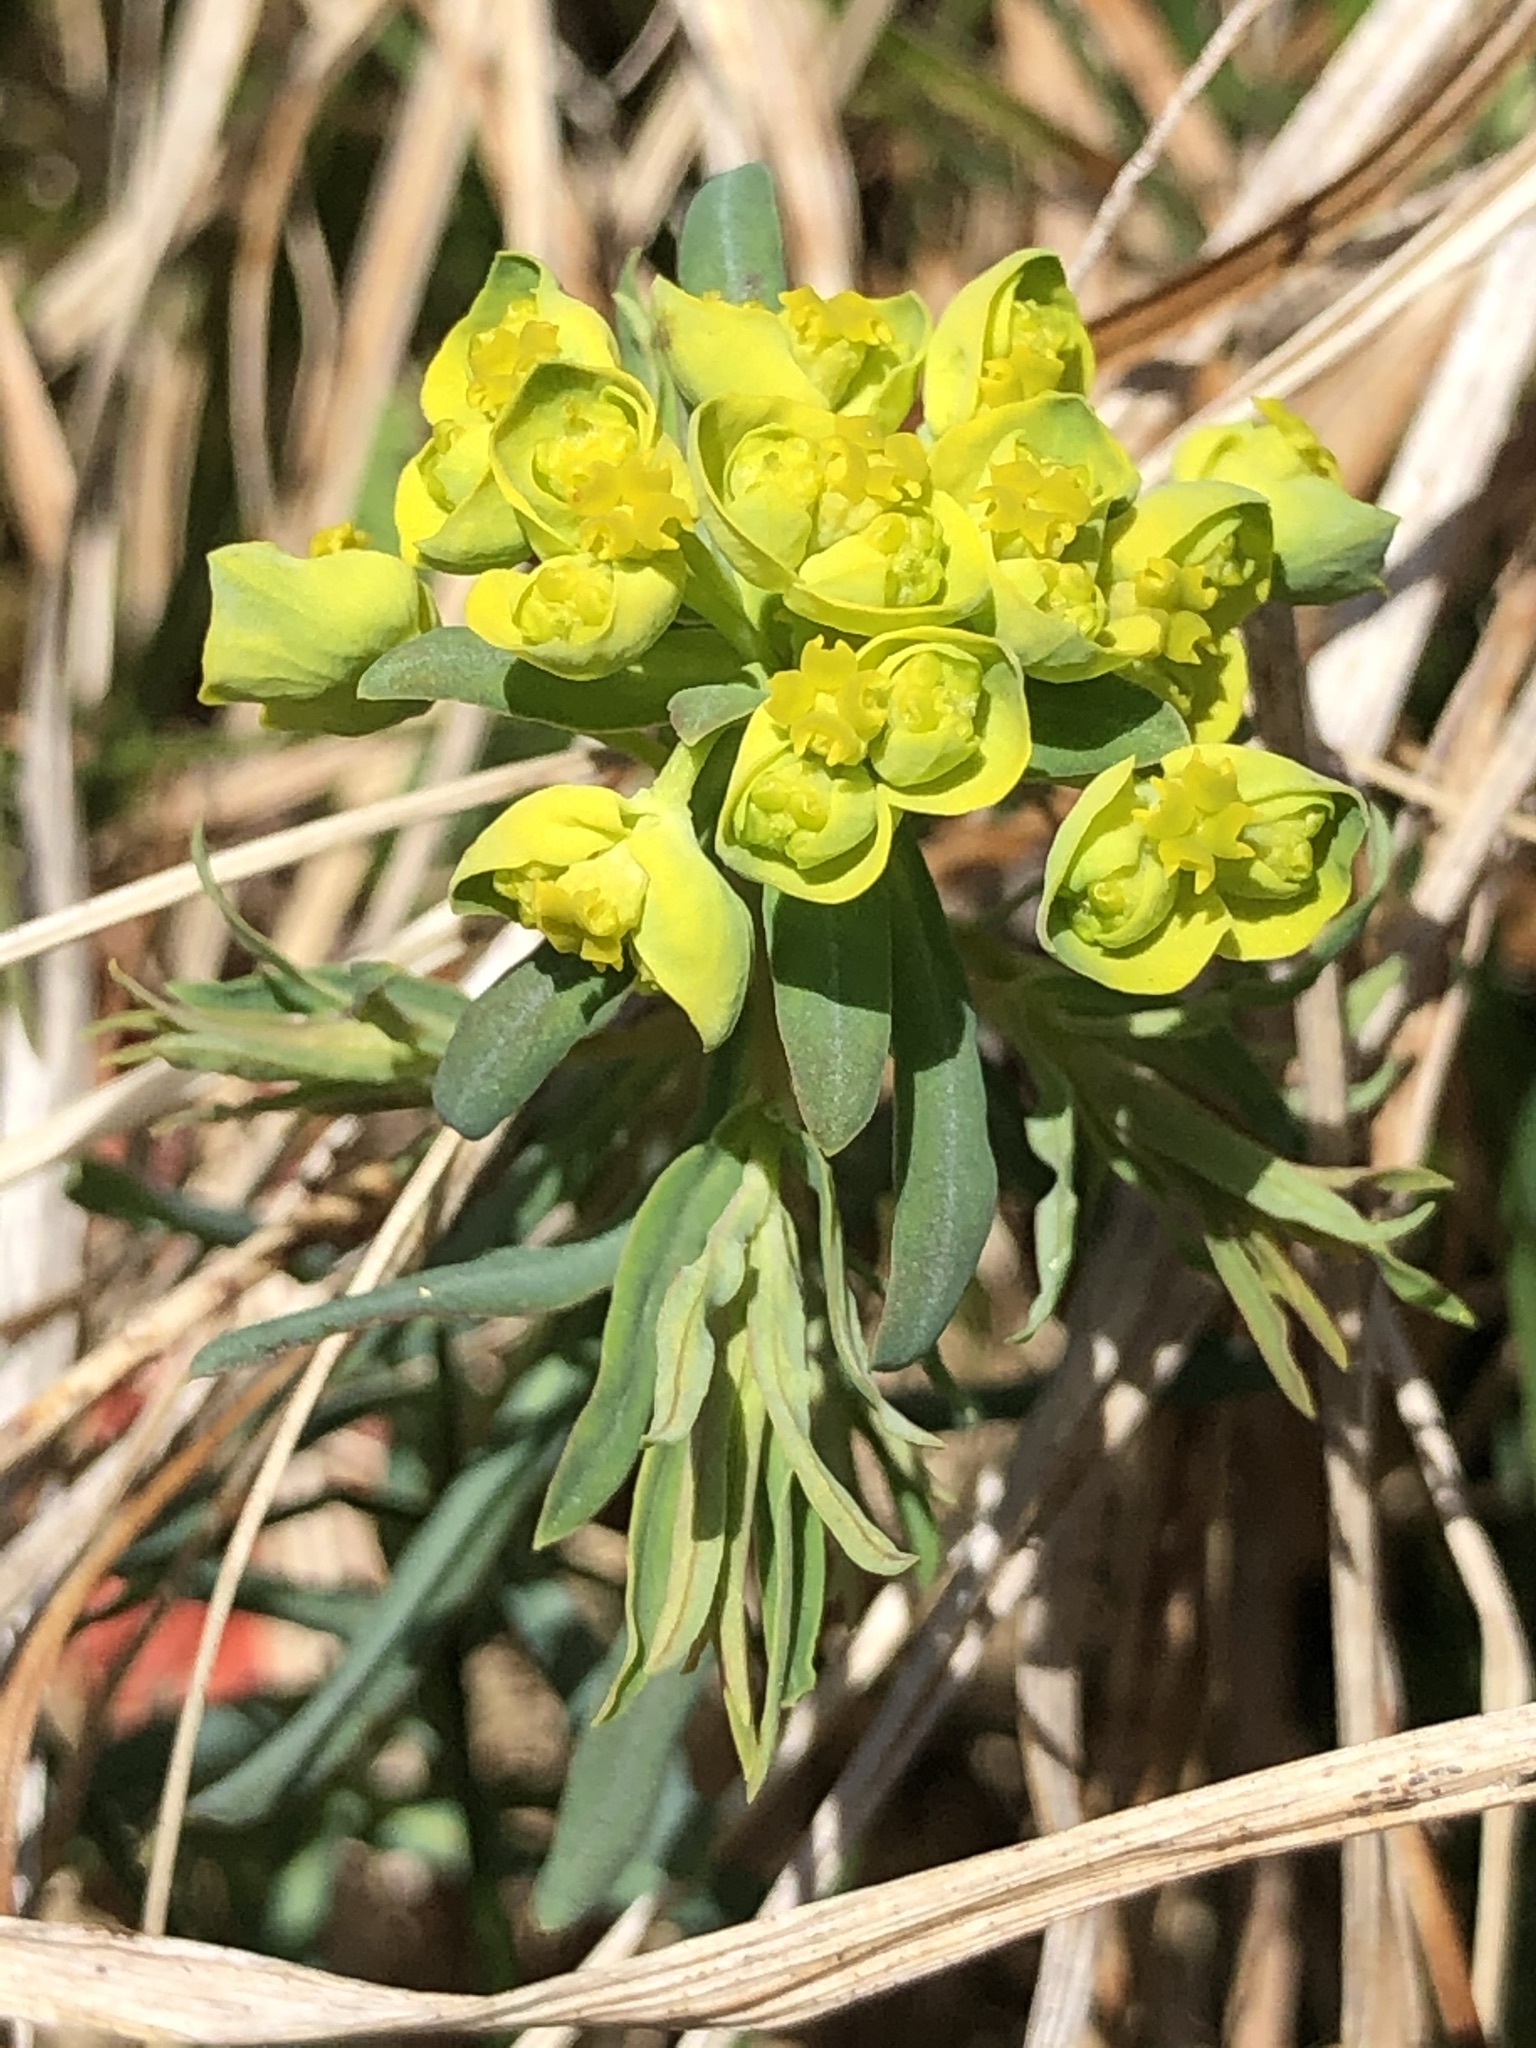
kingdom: Plantae
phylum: Tracheophyta
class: Magnoliopsida
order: Malpighiales
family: Euphorbiaceae
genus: Euphorbia
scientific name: Euphorbia cyparissias
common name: Cypress spurge
